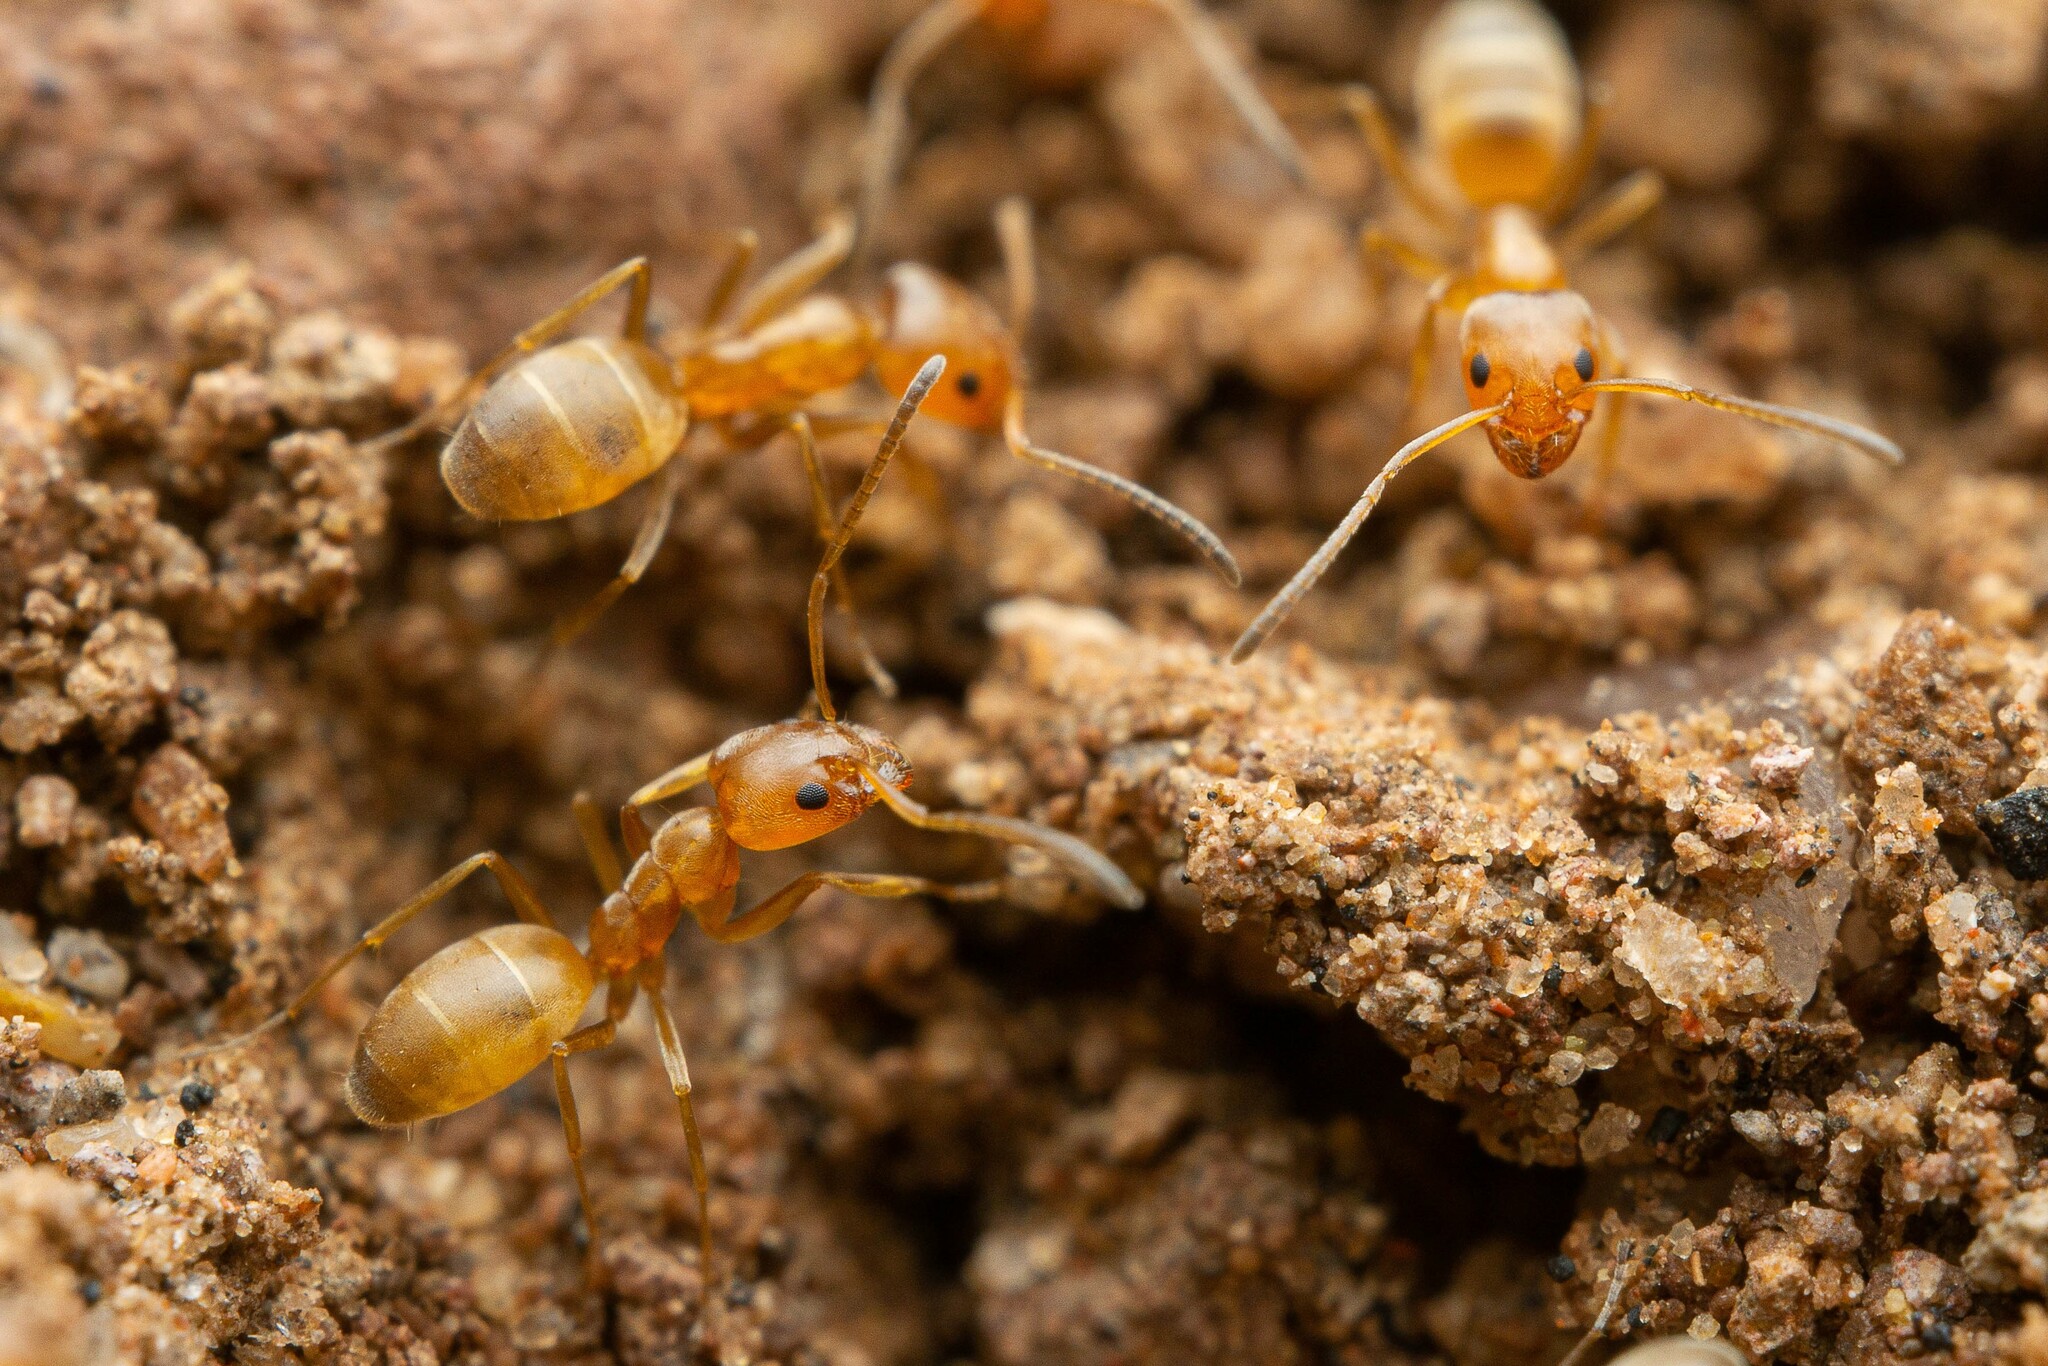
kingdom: Animalia
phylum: Arthropoda
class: Insecta
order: Hymenoptera
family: Formicidae
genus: Forelius
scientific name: Forelius pruinosus
